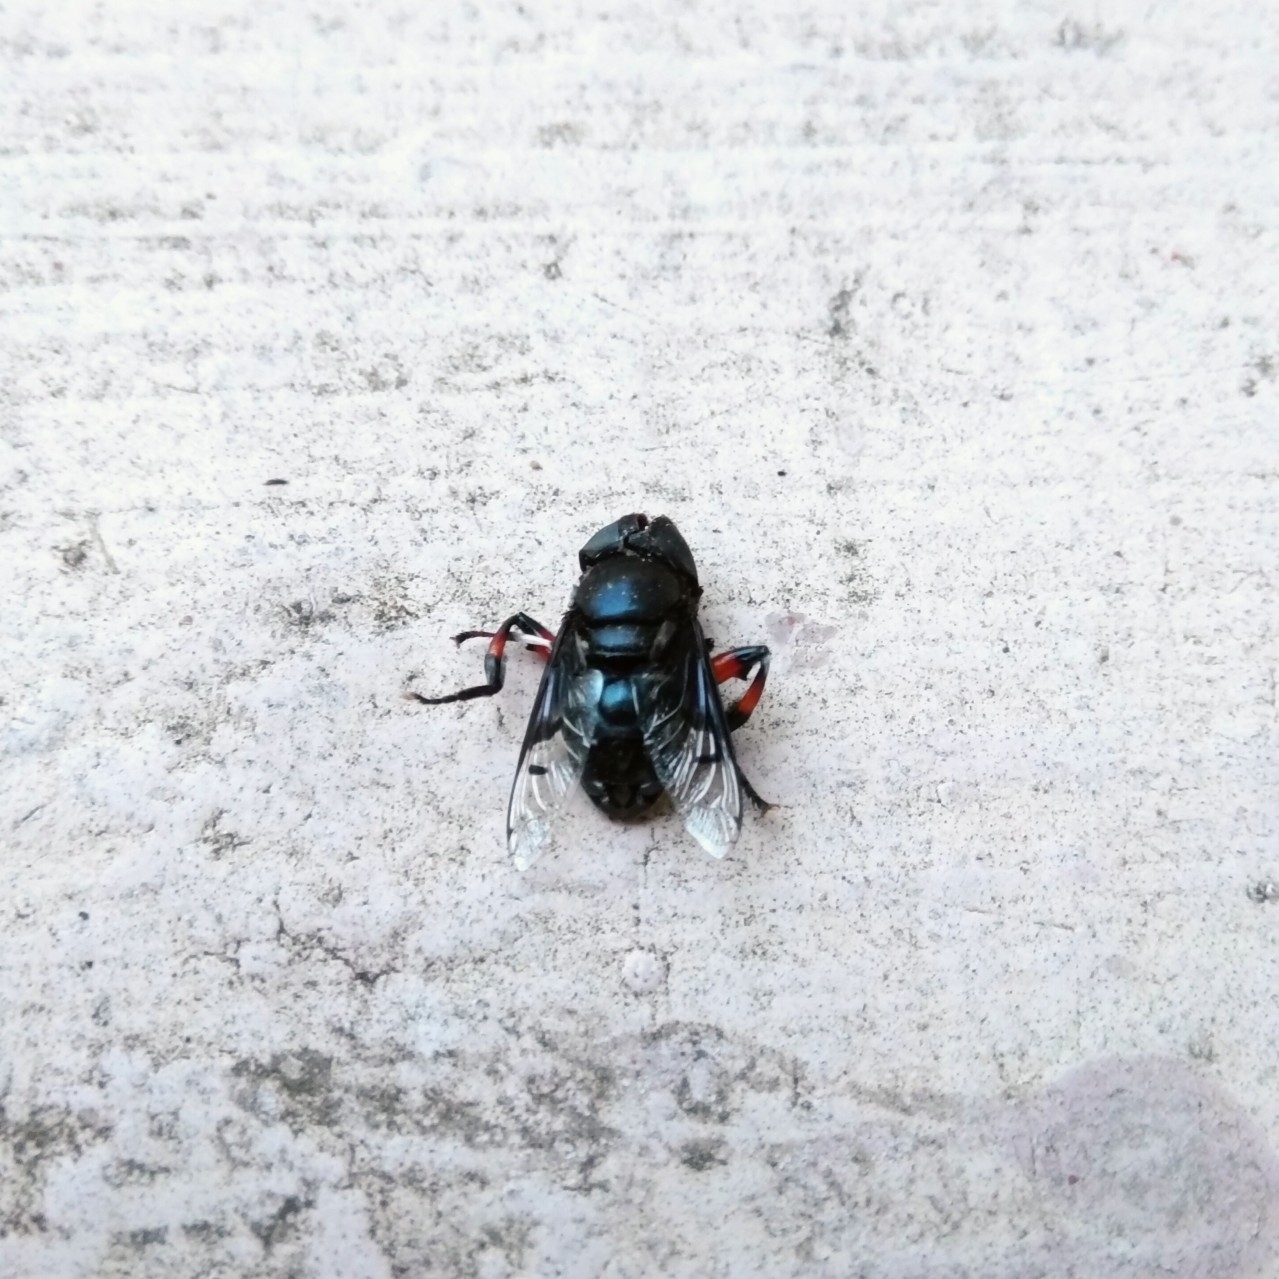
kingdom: Animalia
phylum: Arthropoda
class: Insecta
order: Diptera
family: Syrphidae
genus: Phytomia
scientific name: Phytomia crassa
